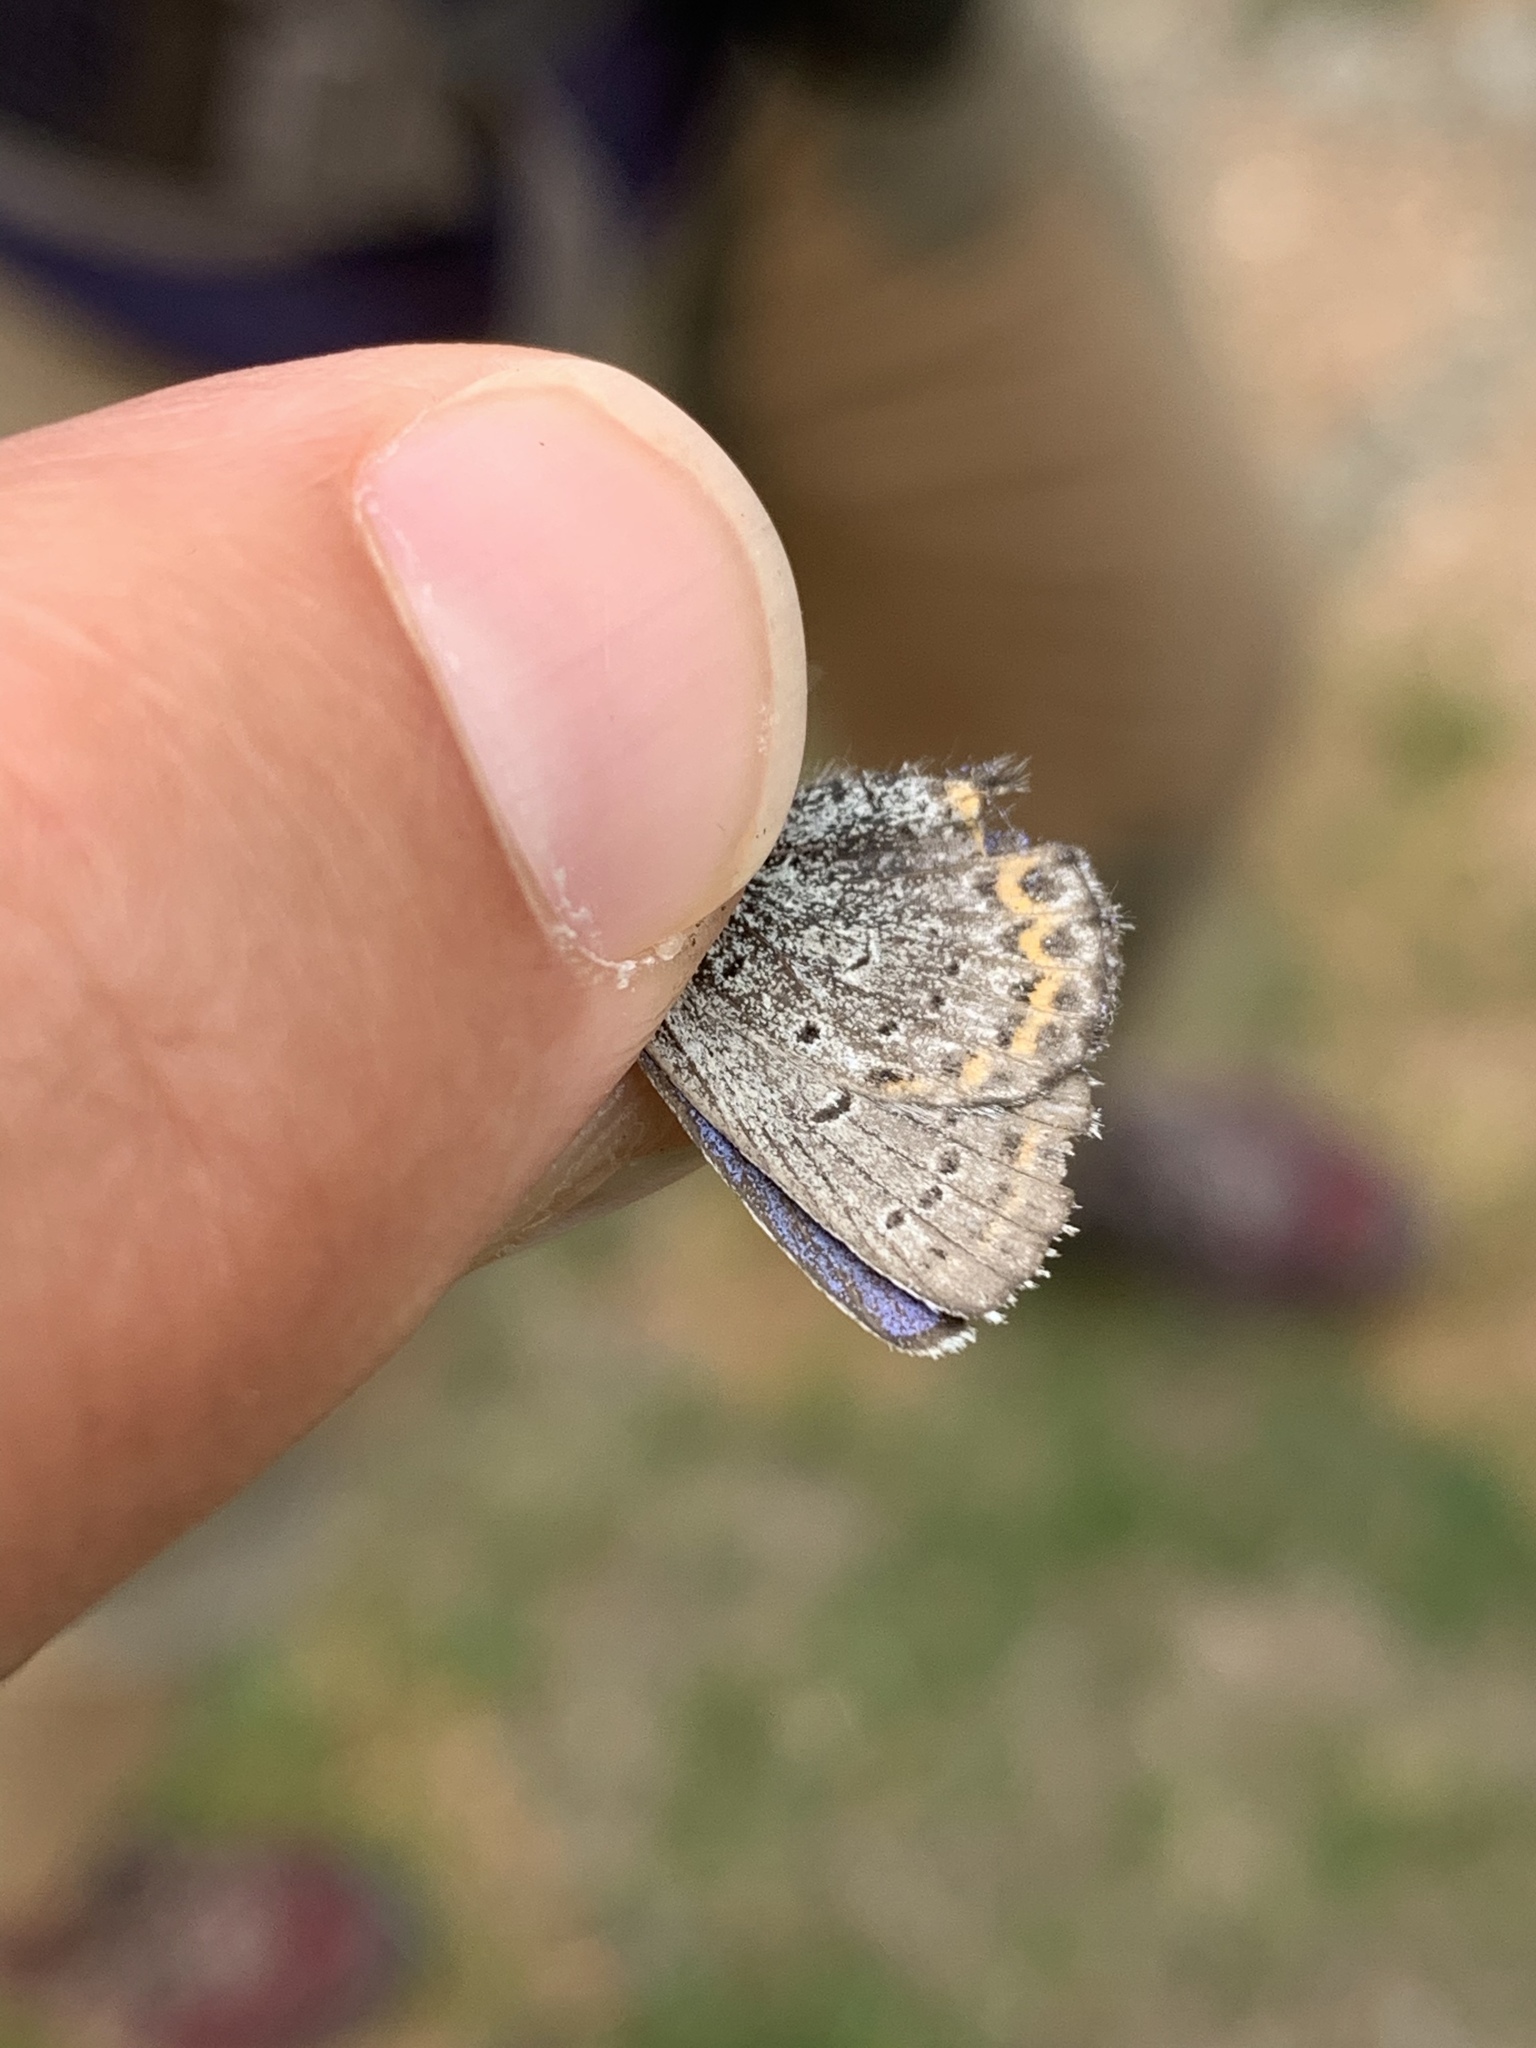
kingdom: Animalia
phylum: Arthropoda
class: Insecta
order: Lepidoptera
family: Lycaenidae
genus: Lycaeides
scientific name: Lycaeides idas
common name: Northern blue
